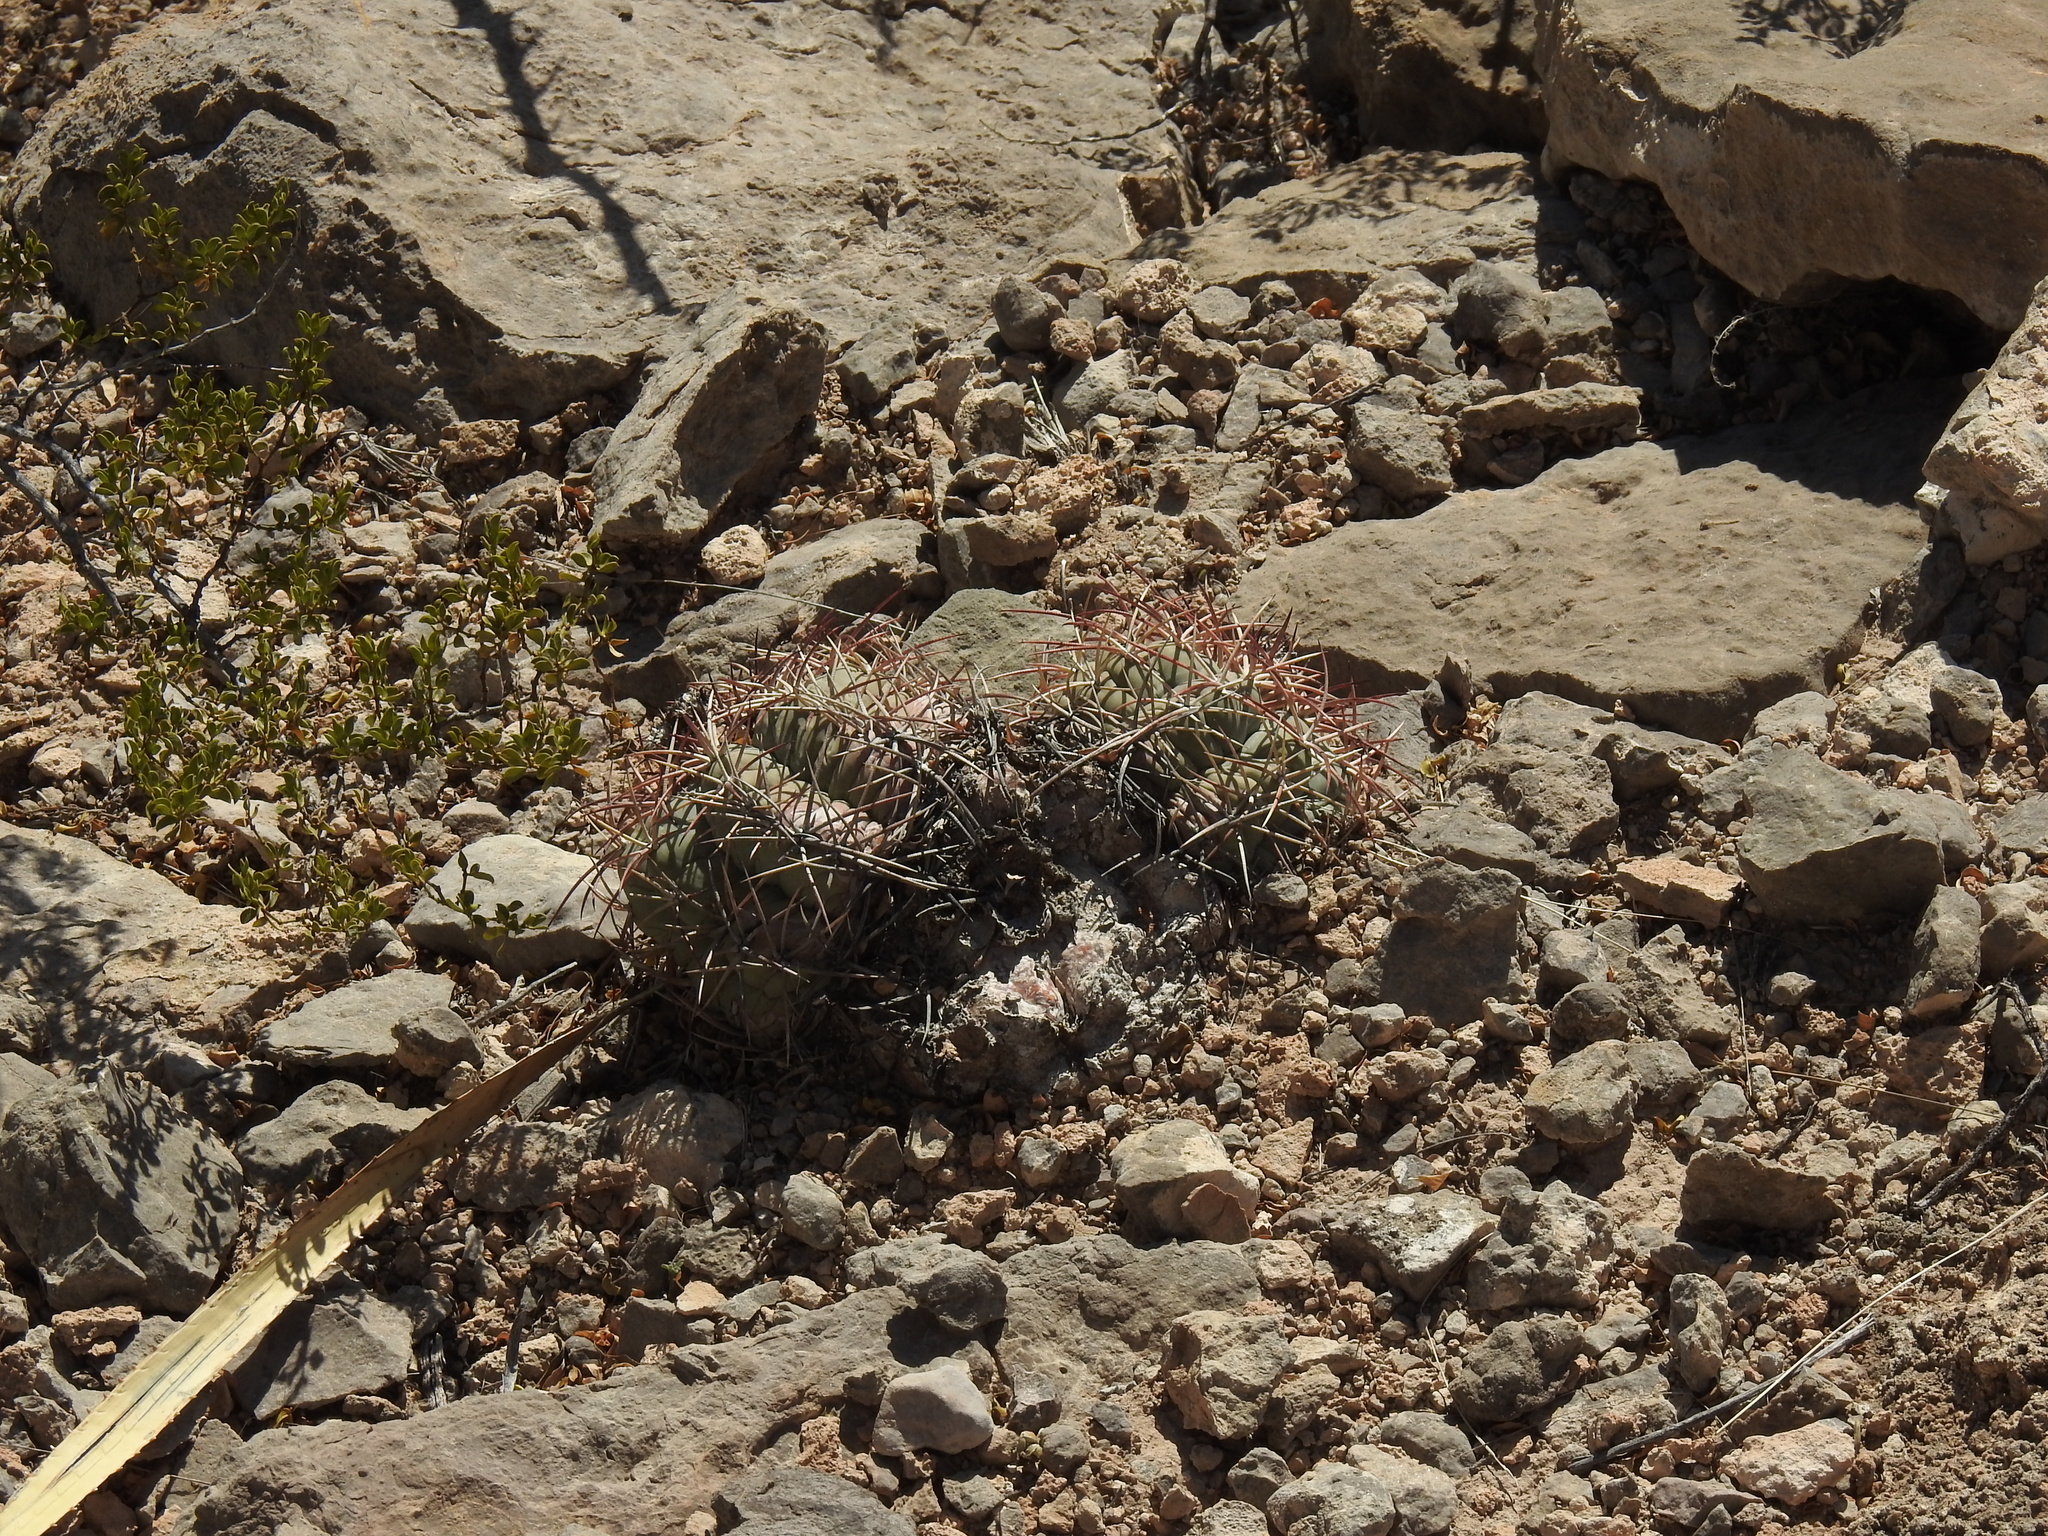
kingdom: Plantae
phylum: Tracheophyta
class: Magnoliopsida
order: Caryophyllales
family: Cactaceae
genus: Echinocactus
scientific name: Echinocactus horizonthalonius
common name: Devilshead
